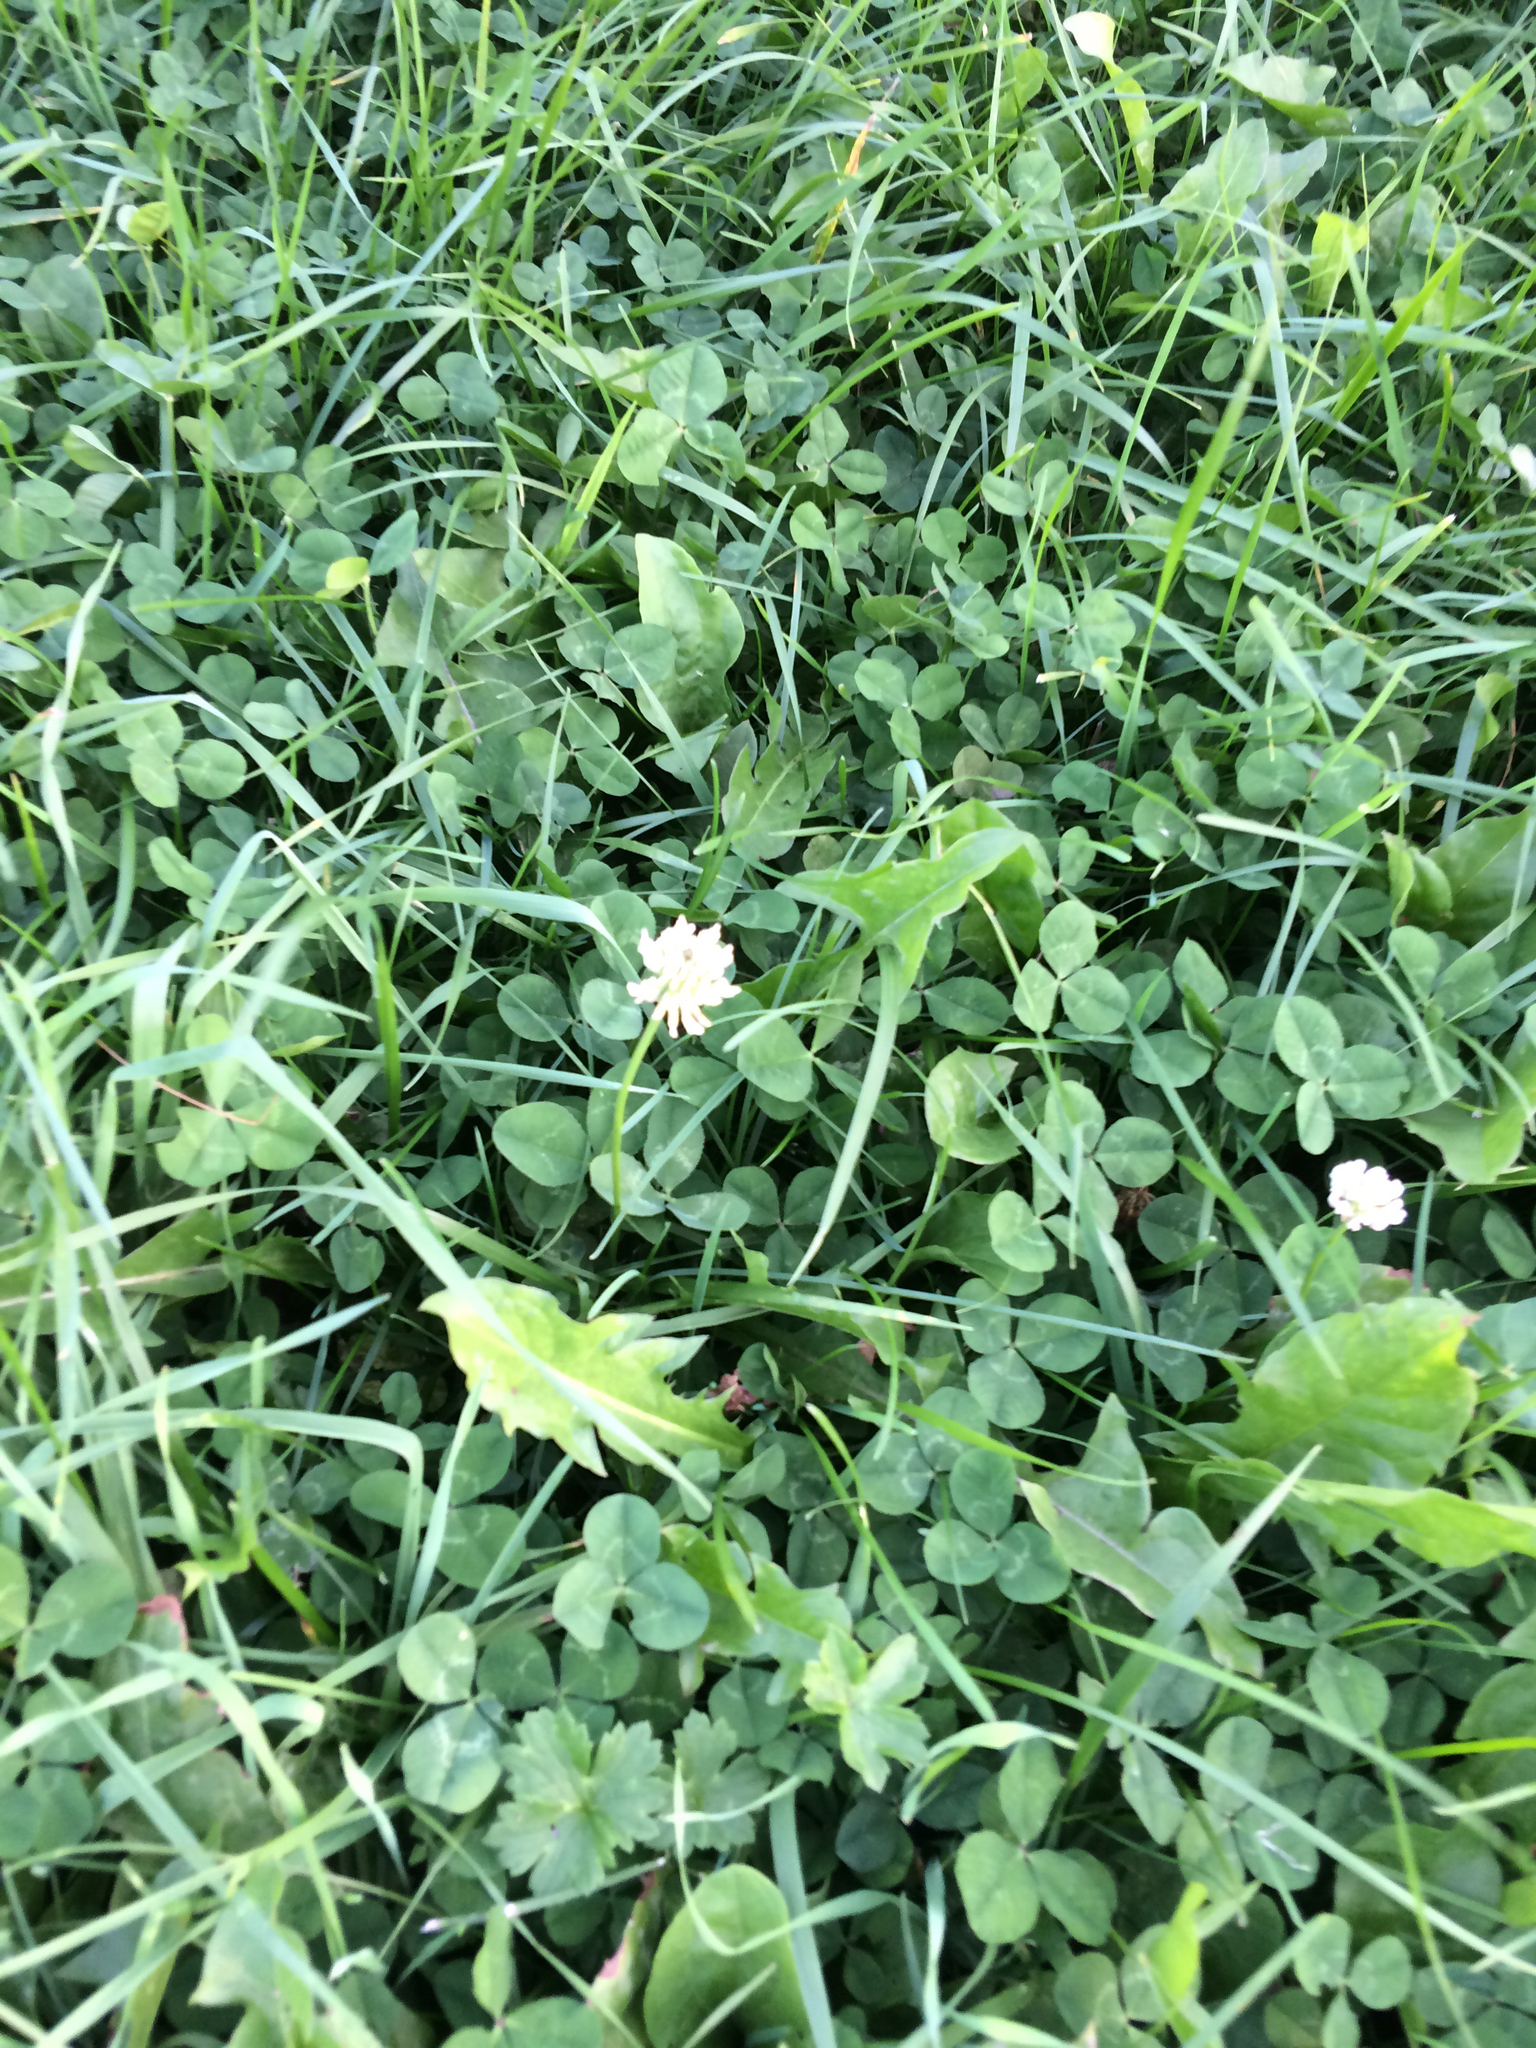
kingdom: Plantae
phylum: Tracheophyta
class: Magnoliopsida
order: Fabales
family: Fabaceae
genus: Trifolium
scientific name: Trifolium repens
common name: White clover
